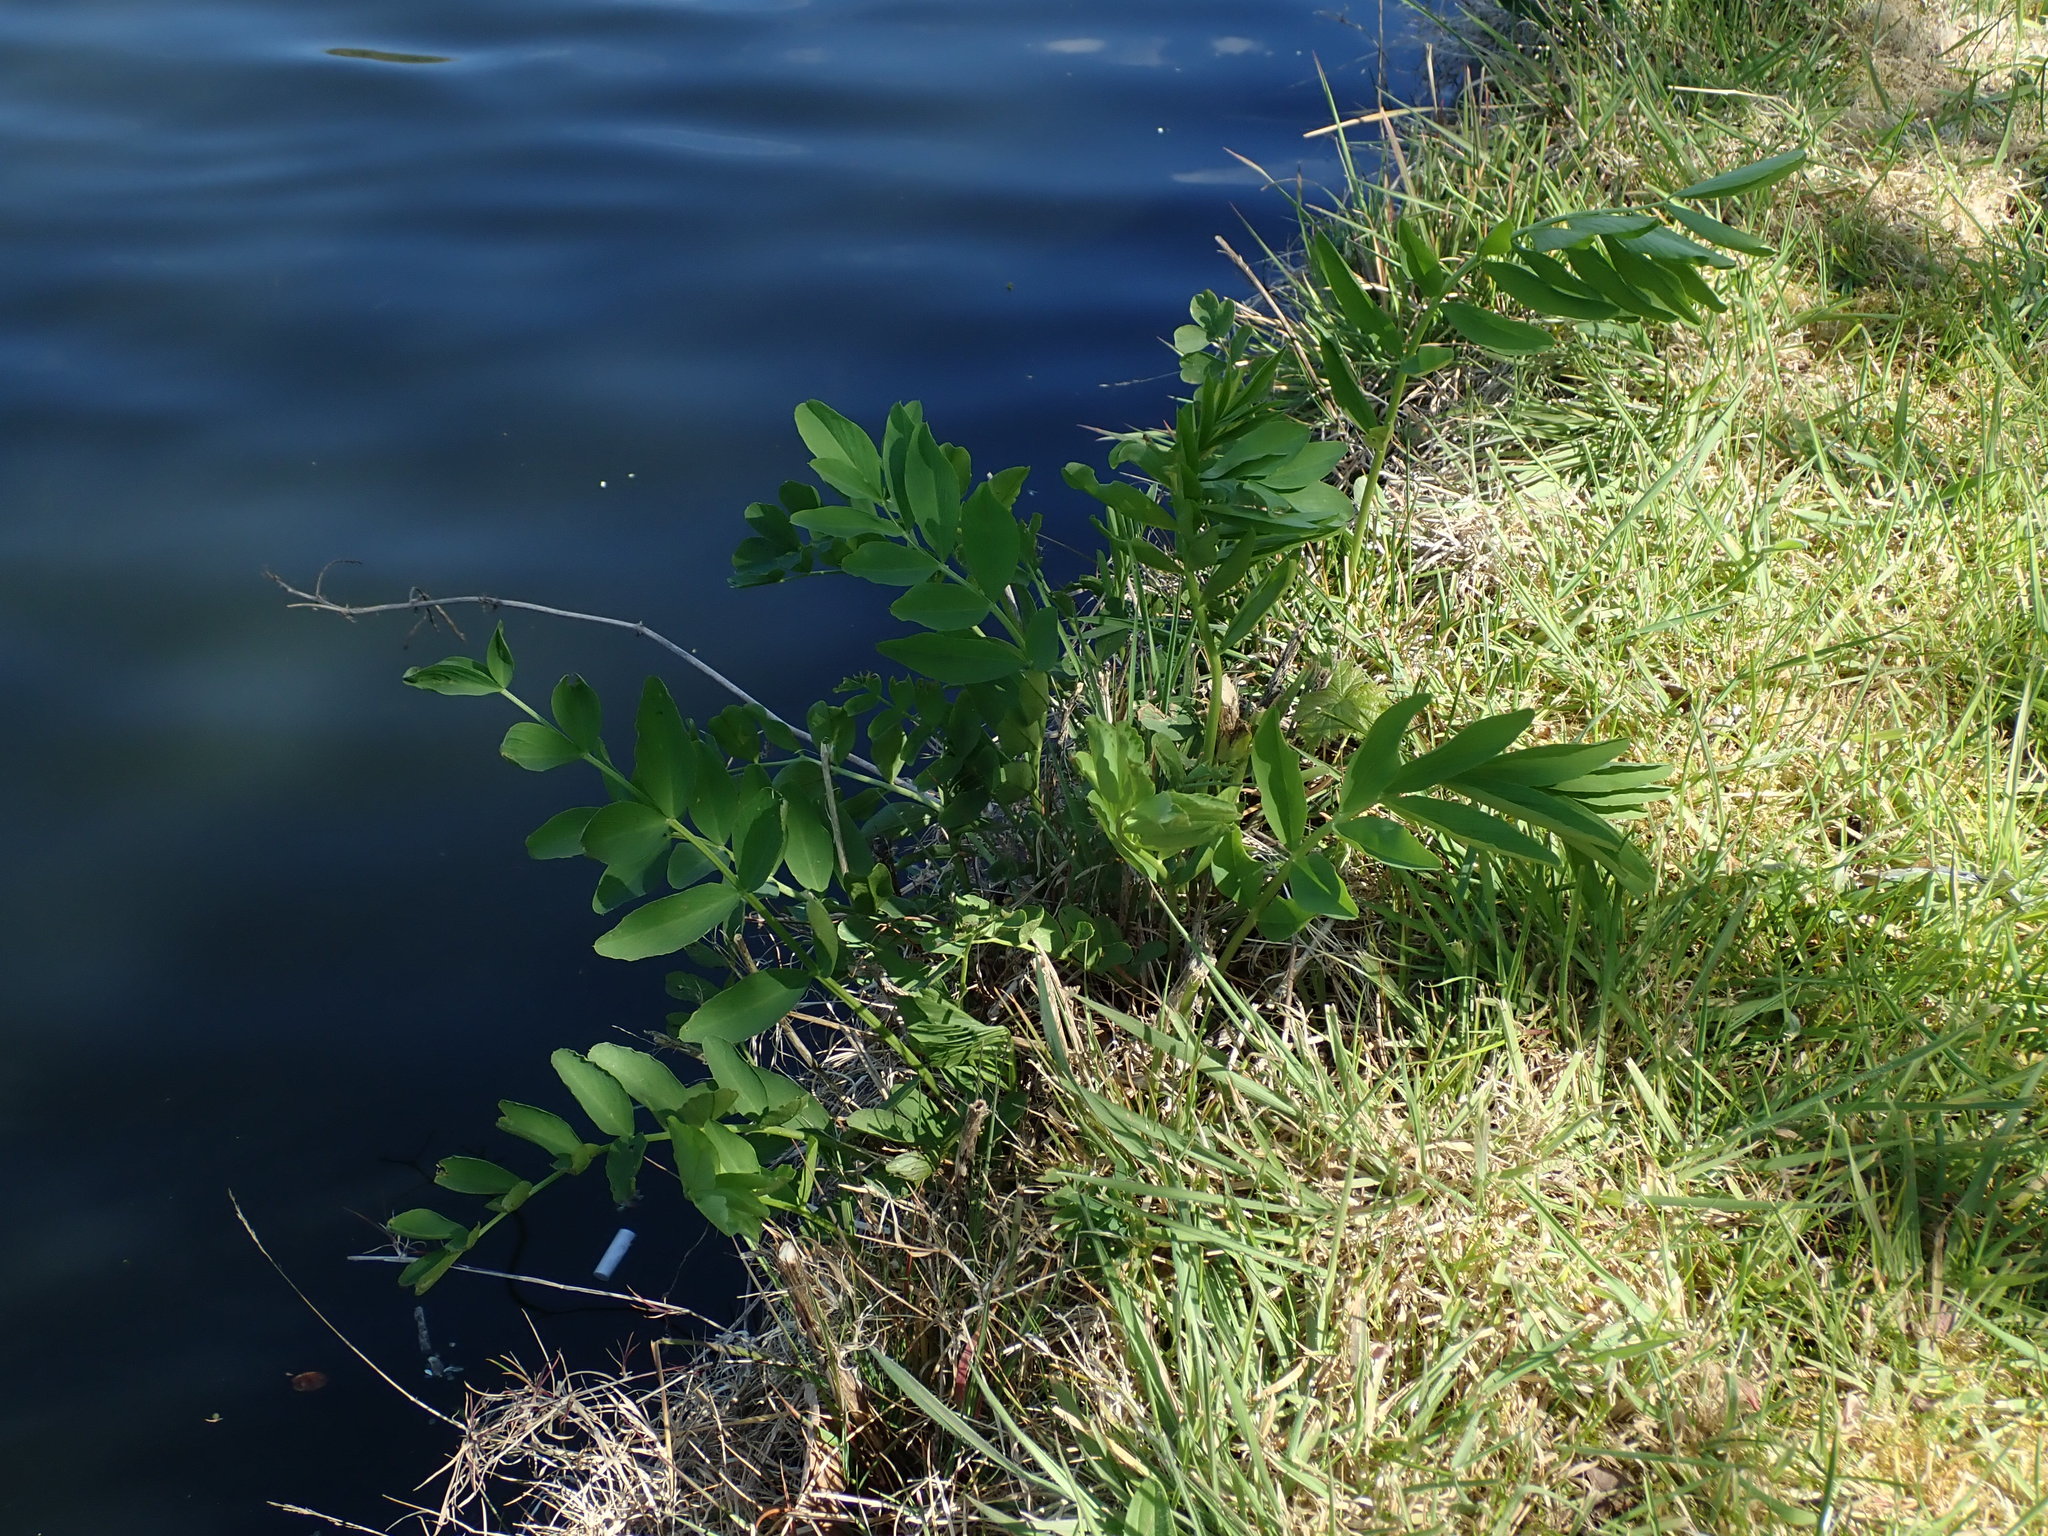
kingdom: Plantae
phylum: Tracheophyta
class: Magnoliopsida
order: Fabales
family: Fabaceae
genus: Galega
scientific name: Galega officinalis
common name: Goat's-rue
